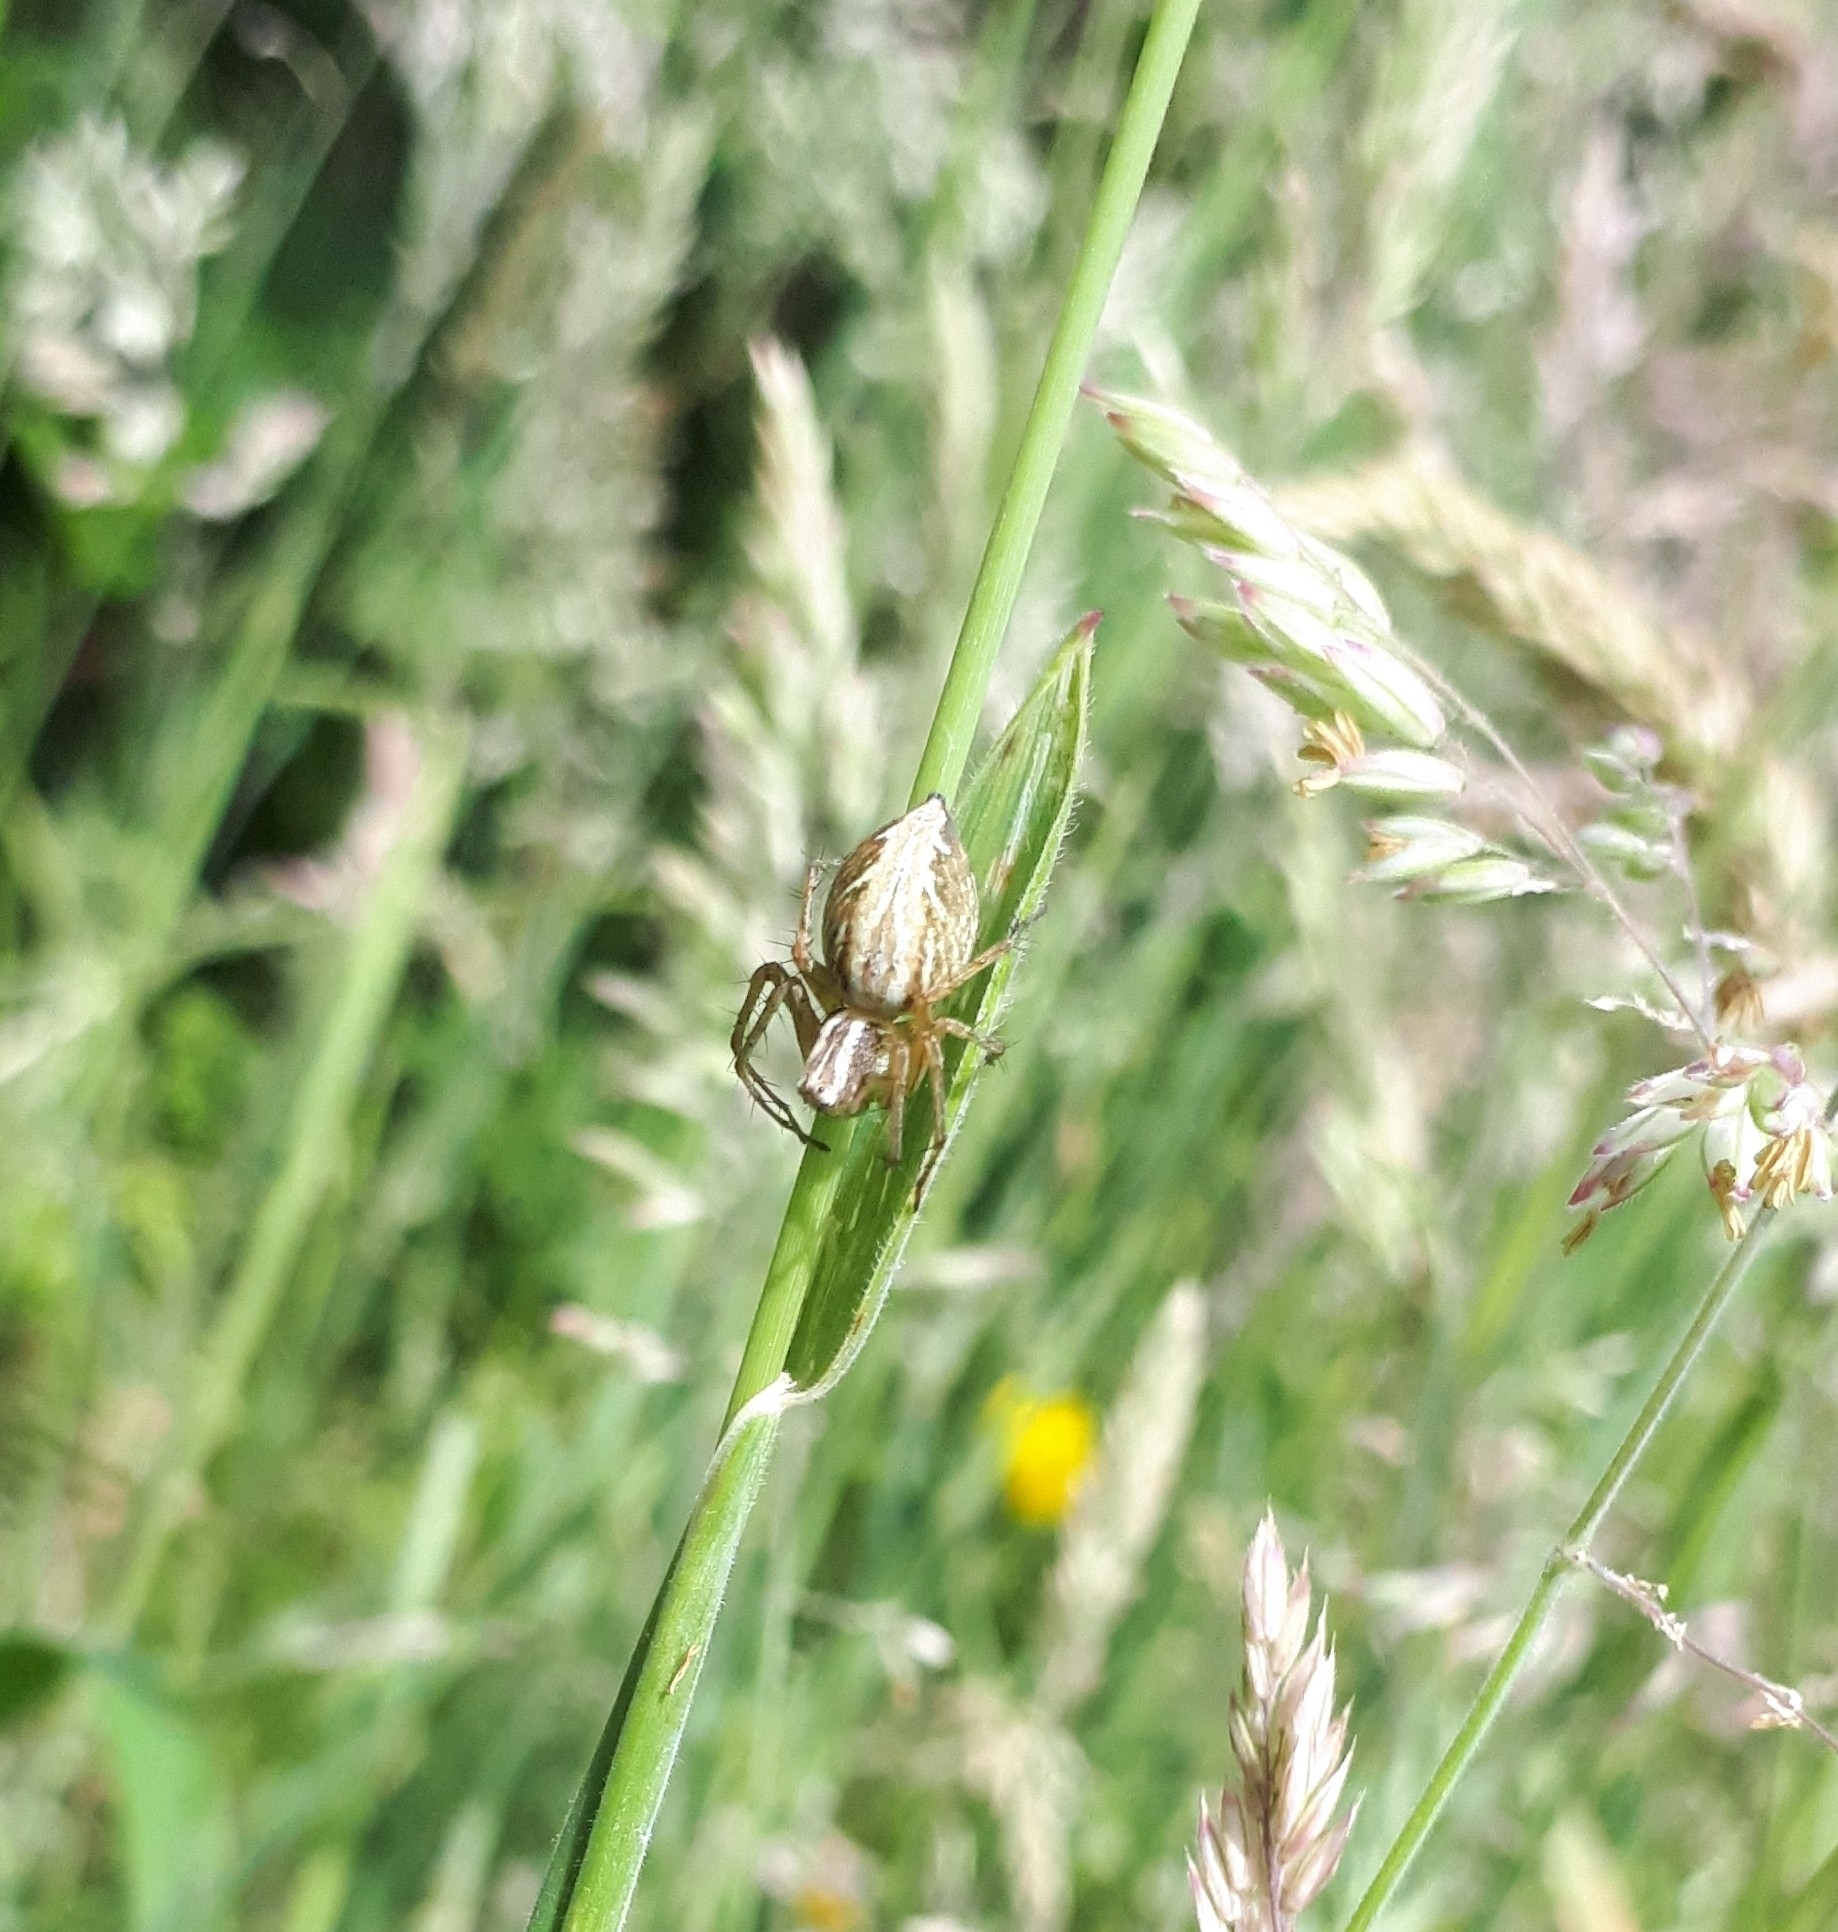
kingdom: Animalia
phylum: Arthropoda
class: Arachnida
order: Araneae
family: Oxyopidae
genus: Oxyopes
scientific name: Oxyopes gracilipes
